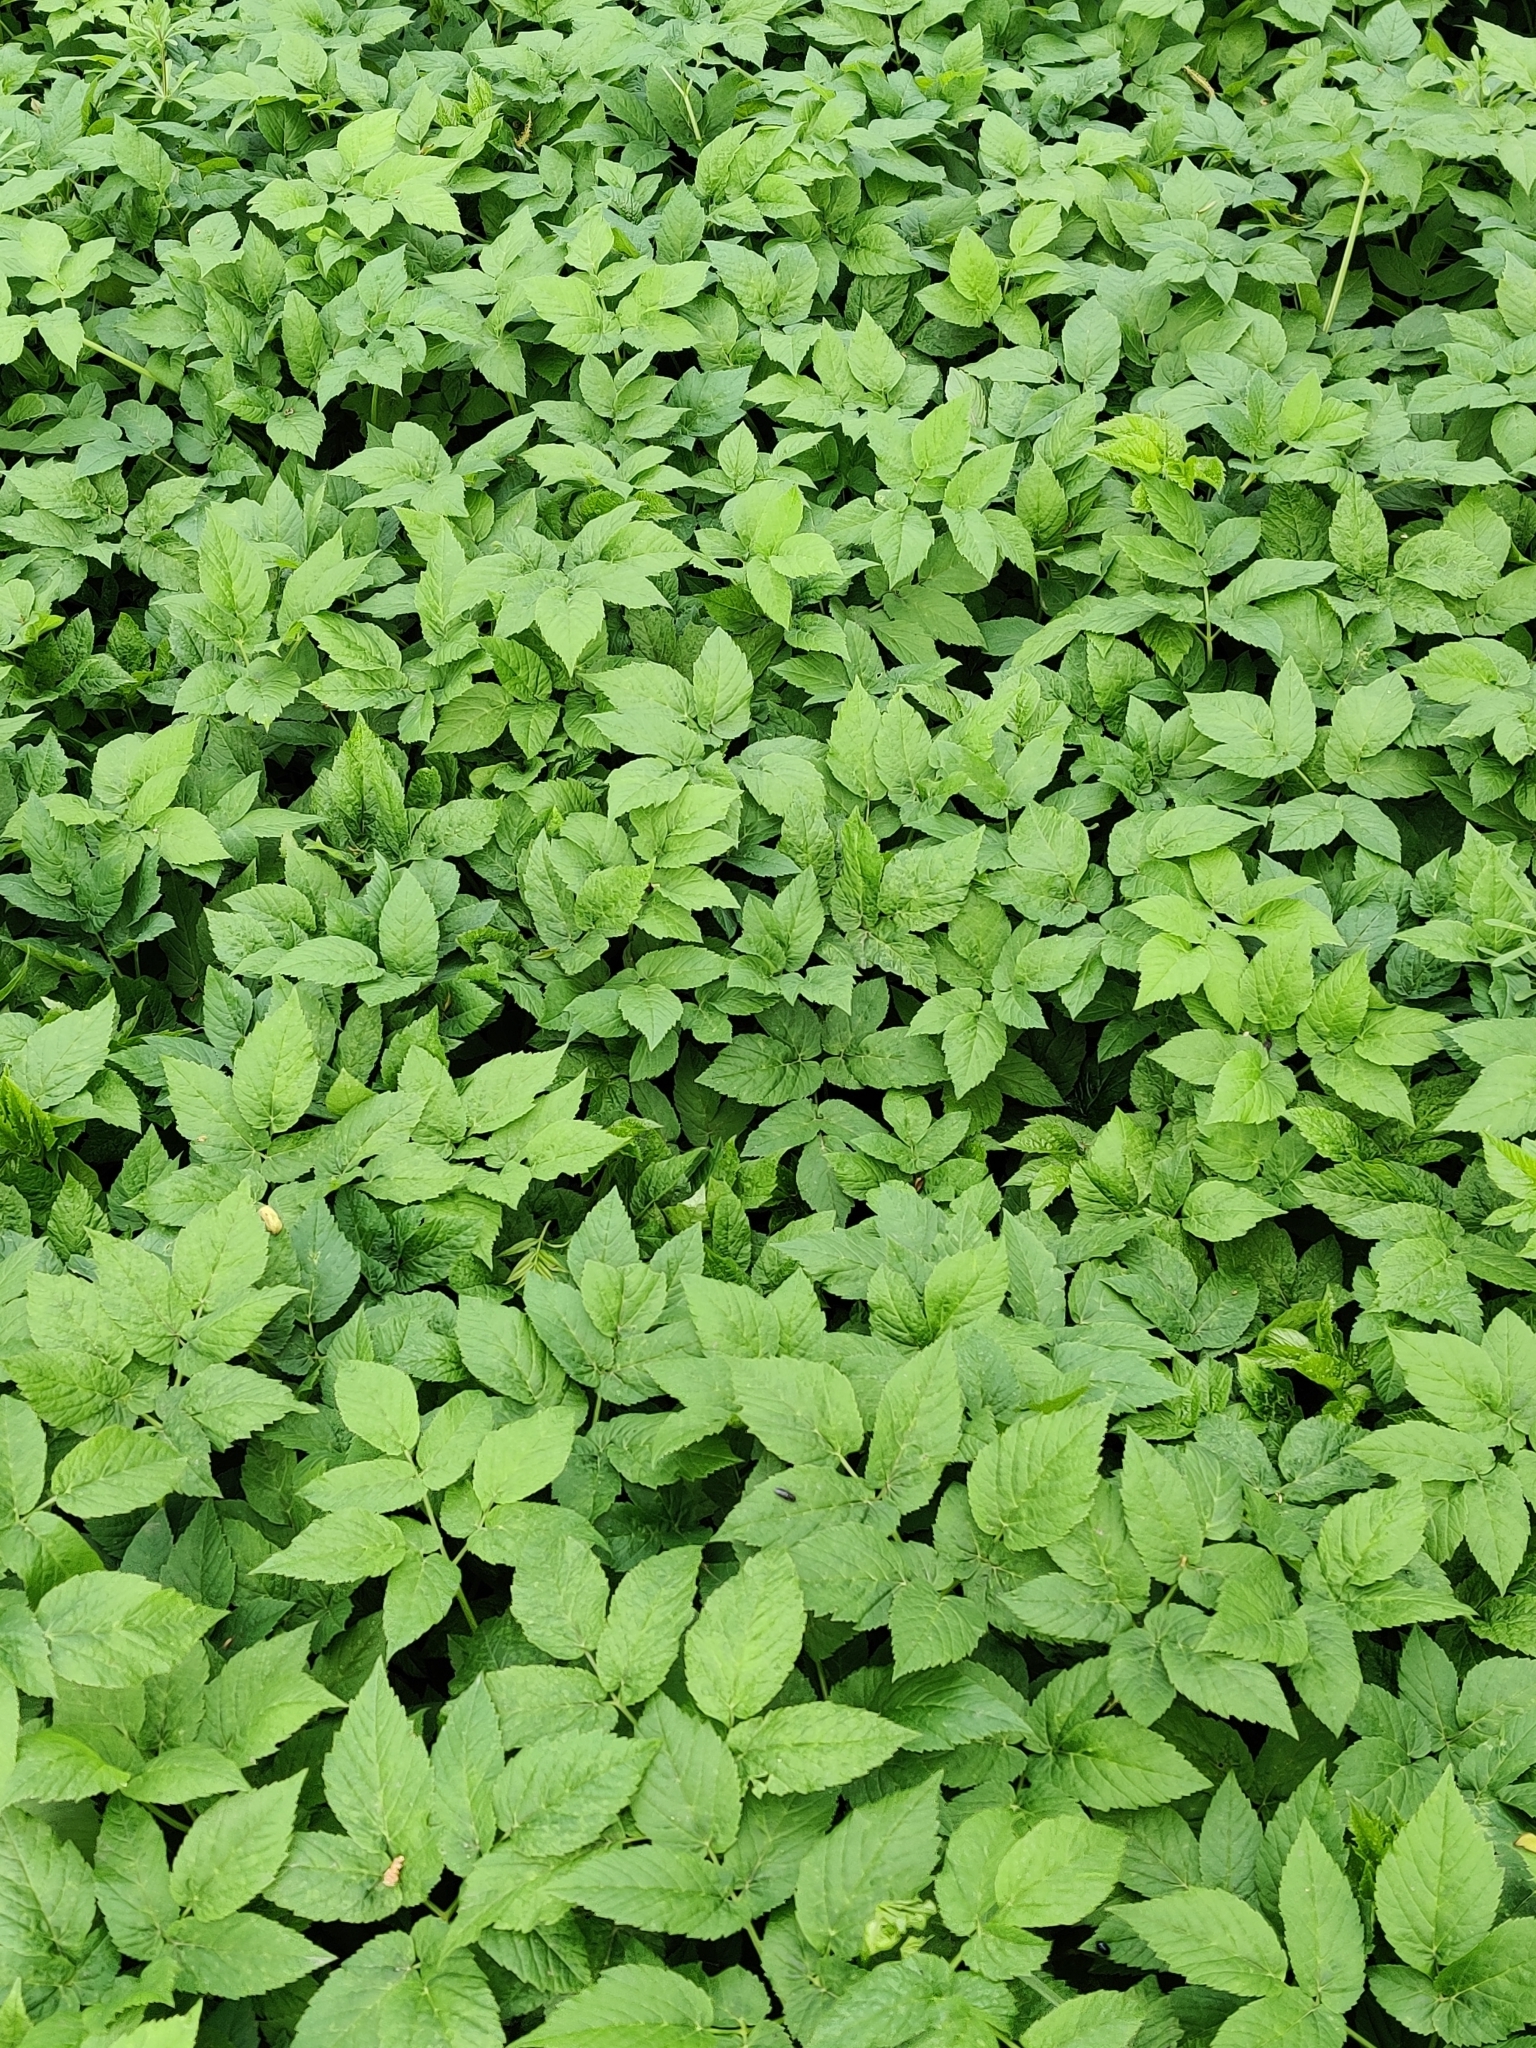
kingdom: Plantae
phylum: Tracheophyta
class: Magnoliopsida
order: Apiales
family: Apiaceae
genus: Aegopodium
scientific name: Aegopodium podagraria
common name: Ground-elder
